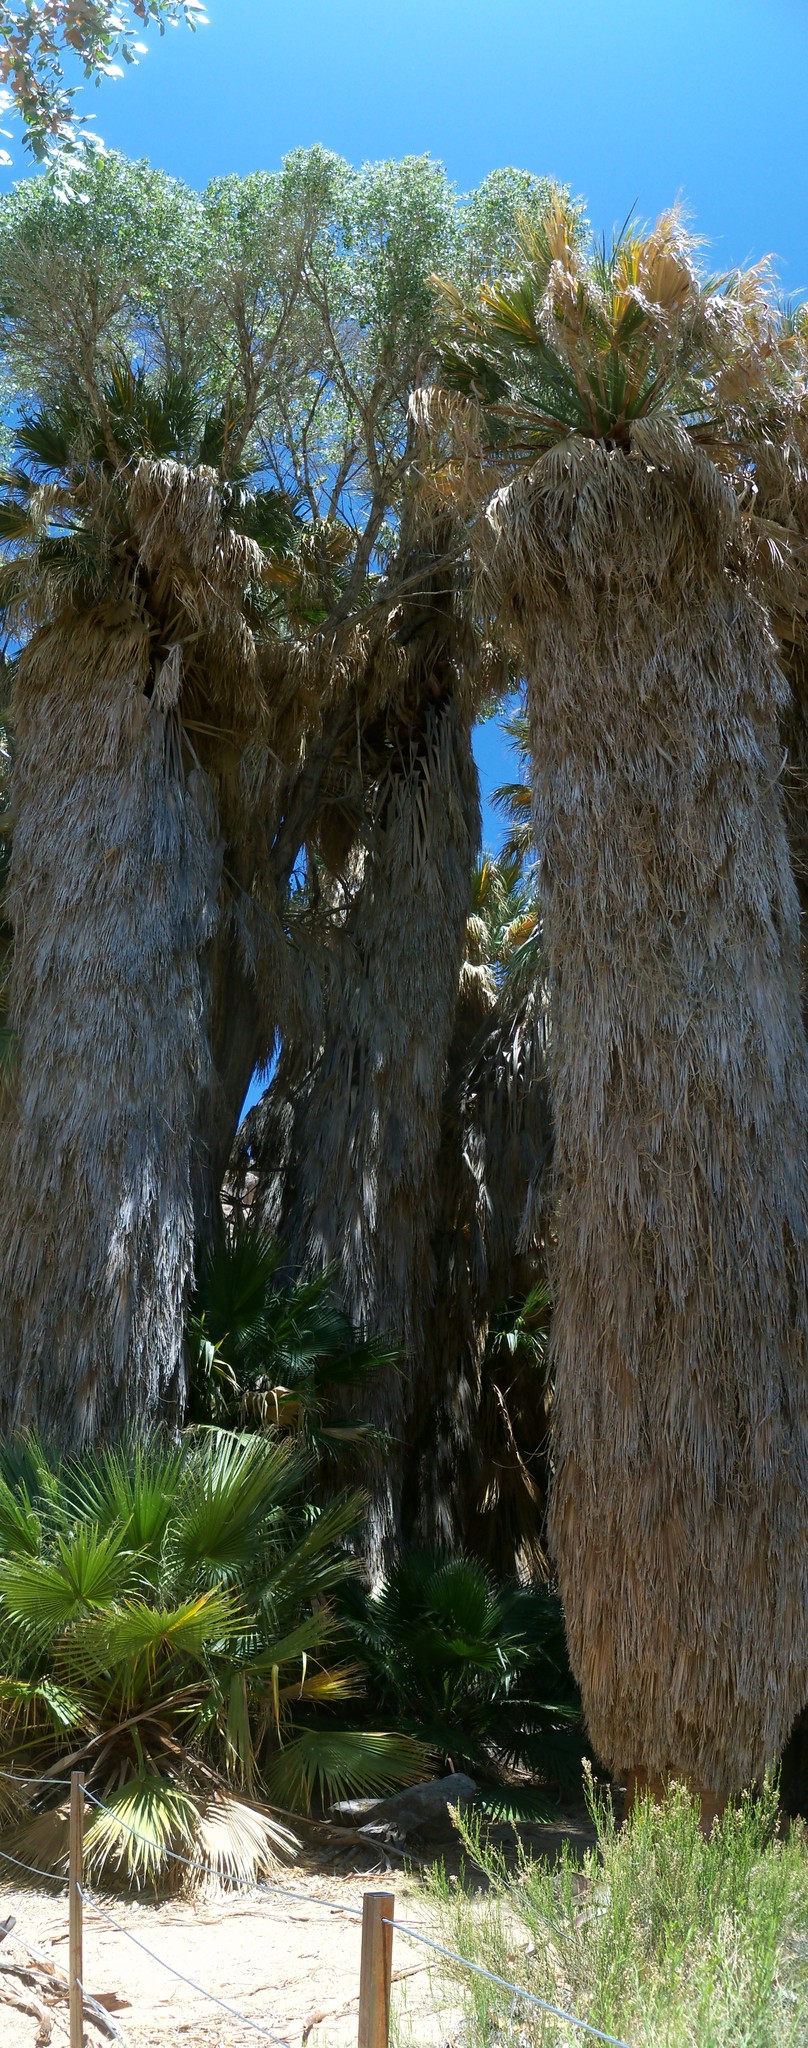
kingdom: Plantae
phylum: Tracheophyta
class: Liliopsida
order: Arecales
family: Arecaceae
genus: Washingtonia
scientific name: Washingtonia filifera
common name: California fan palm
